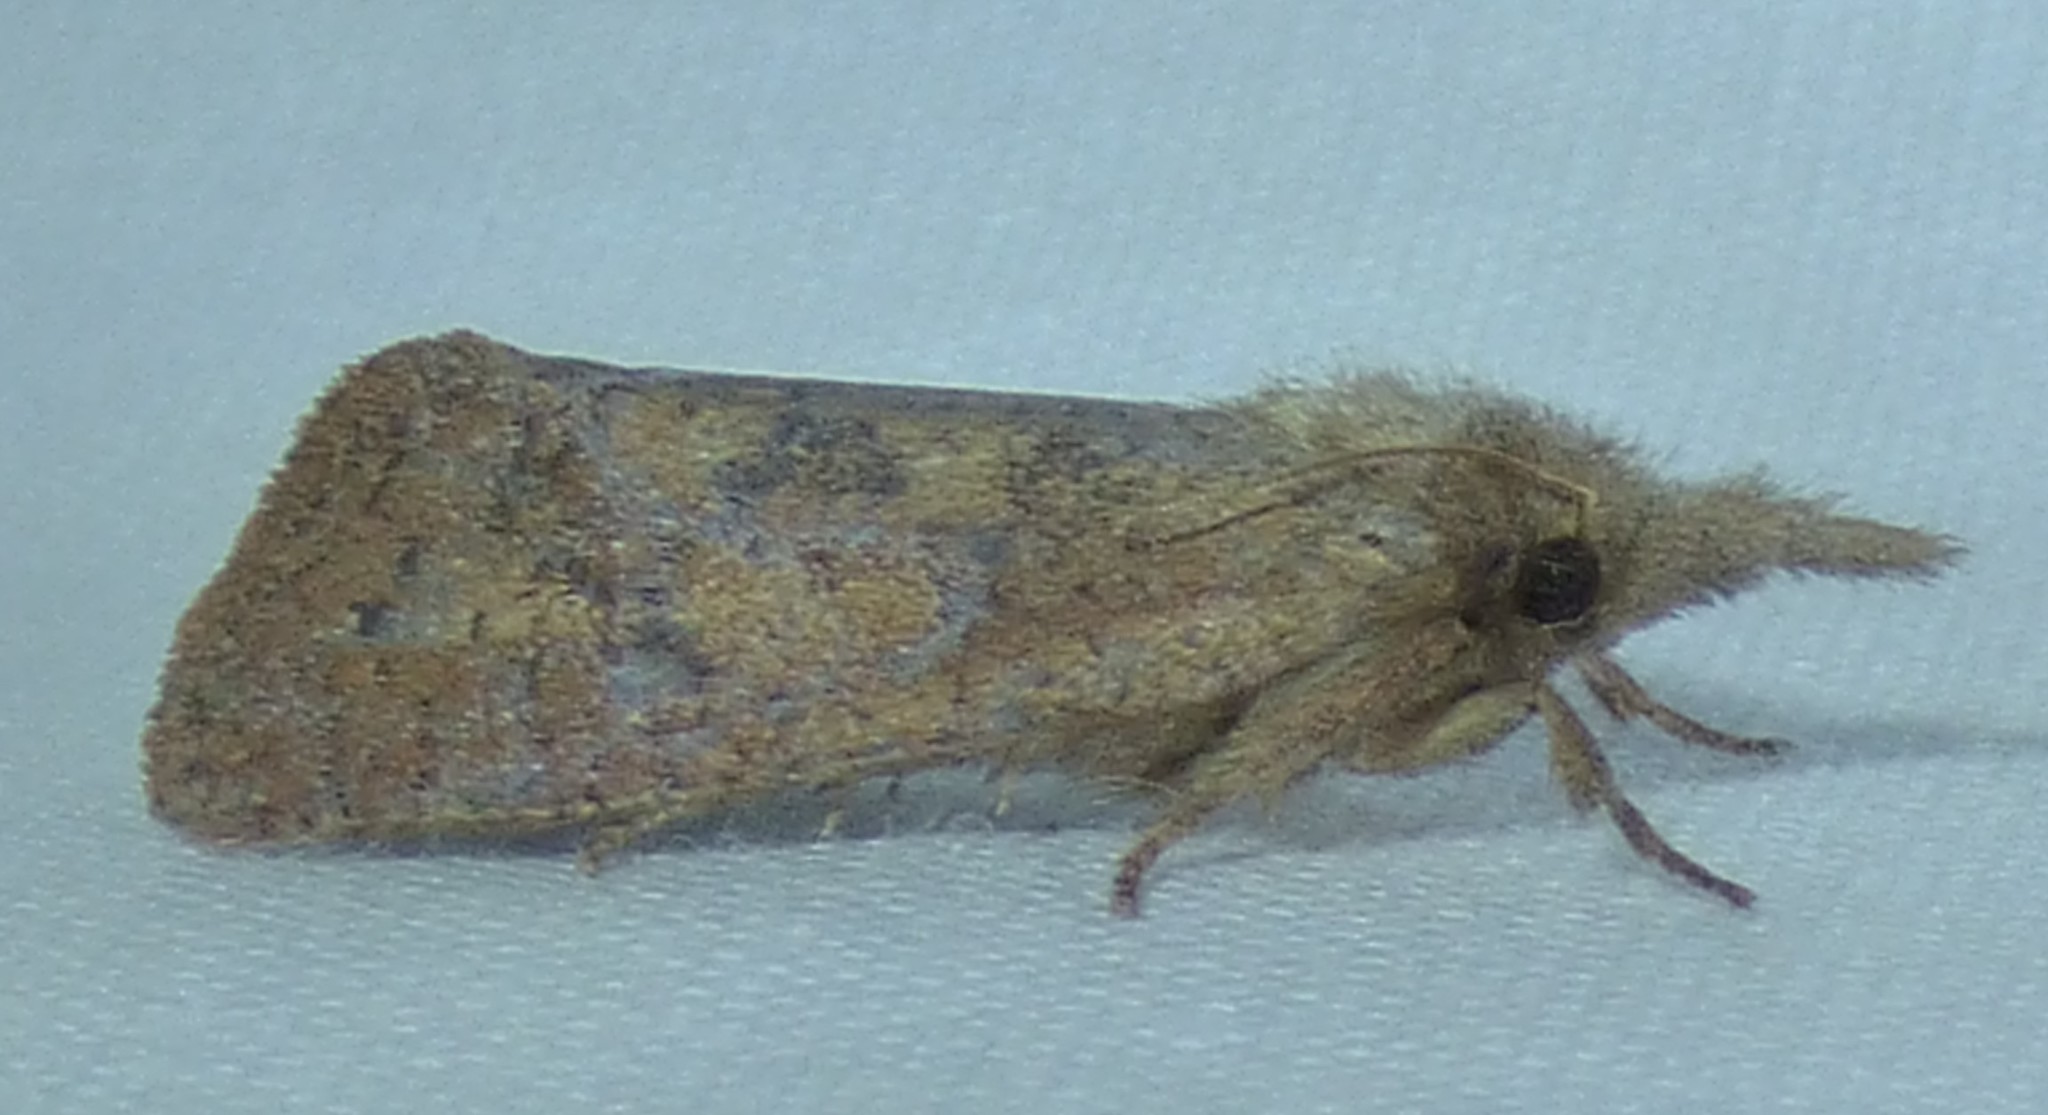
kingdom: Animalia
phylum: Arthropoda
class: Insecta
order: Lepidoptera
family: Tineidae
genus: Acrolophus
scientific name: Acrolophus plumifrontella
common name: Eastern grass tubeworm moth
